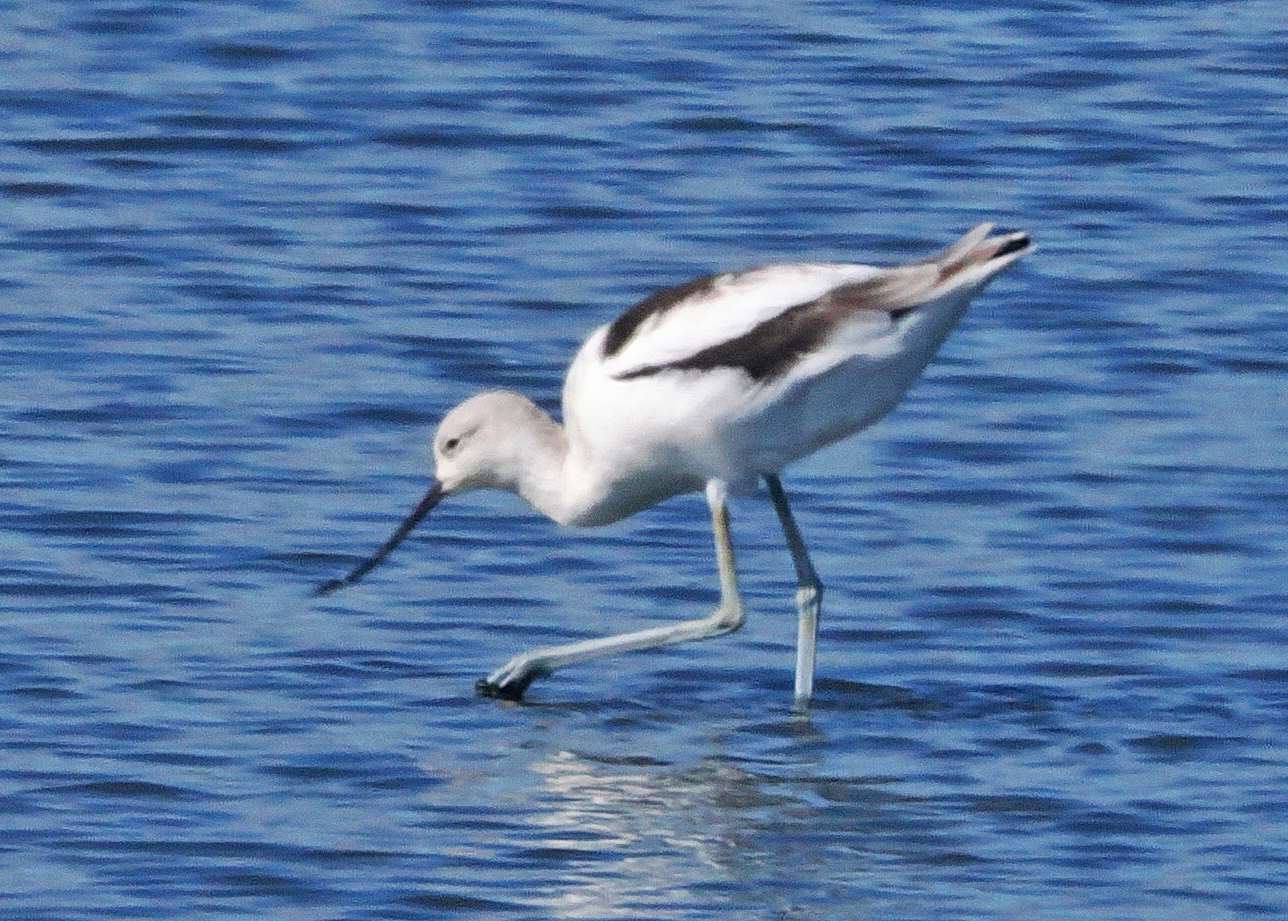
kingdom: Animalia
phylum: Chordata
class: Aves
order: Charadriiformes
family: Recurvirostridae
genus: Recurvirostra
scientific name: Recurvirostra americana
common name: American avocet
